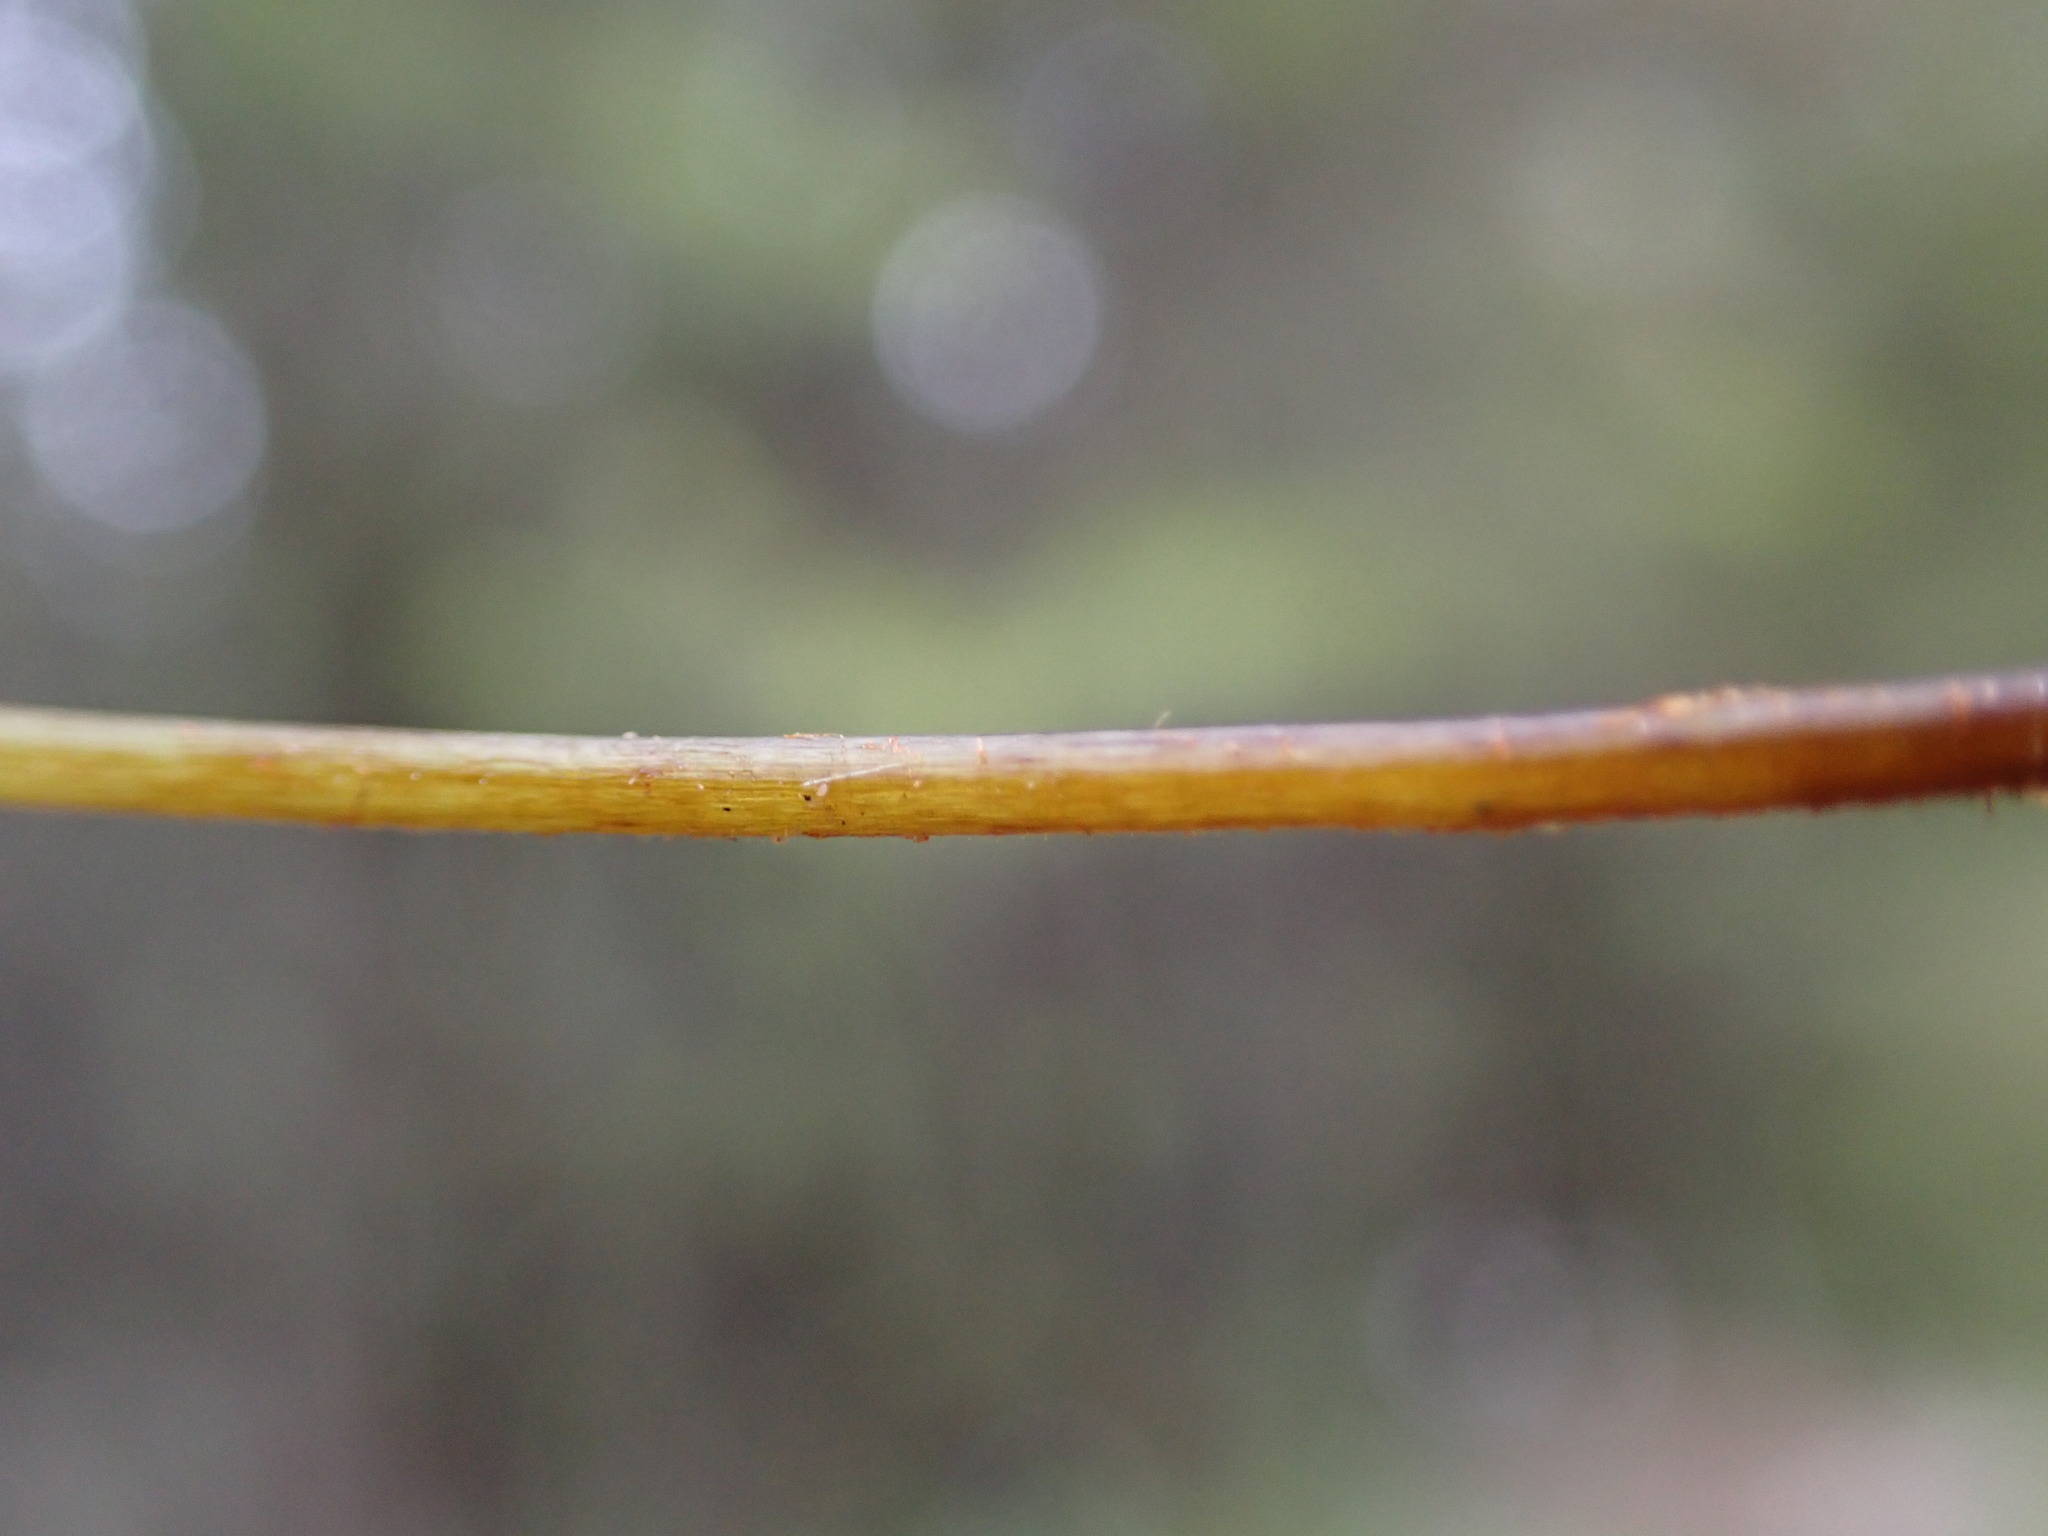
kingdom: Plantae
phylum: Tracheophyta
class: Polypodiopsida
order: Polypodiales
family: Cystopteridaceae
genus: Cystopteris
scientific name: Cystopteris fragilis
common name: Brittle bladder fern
